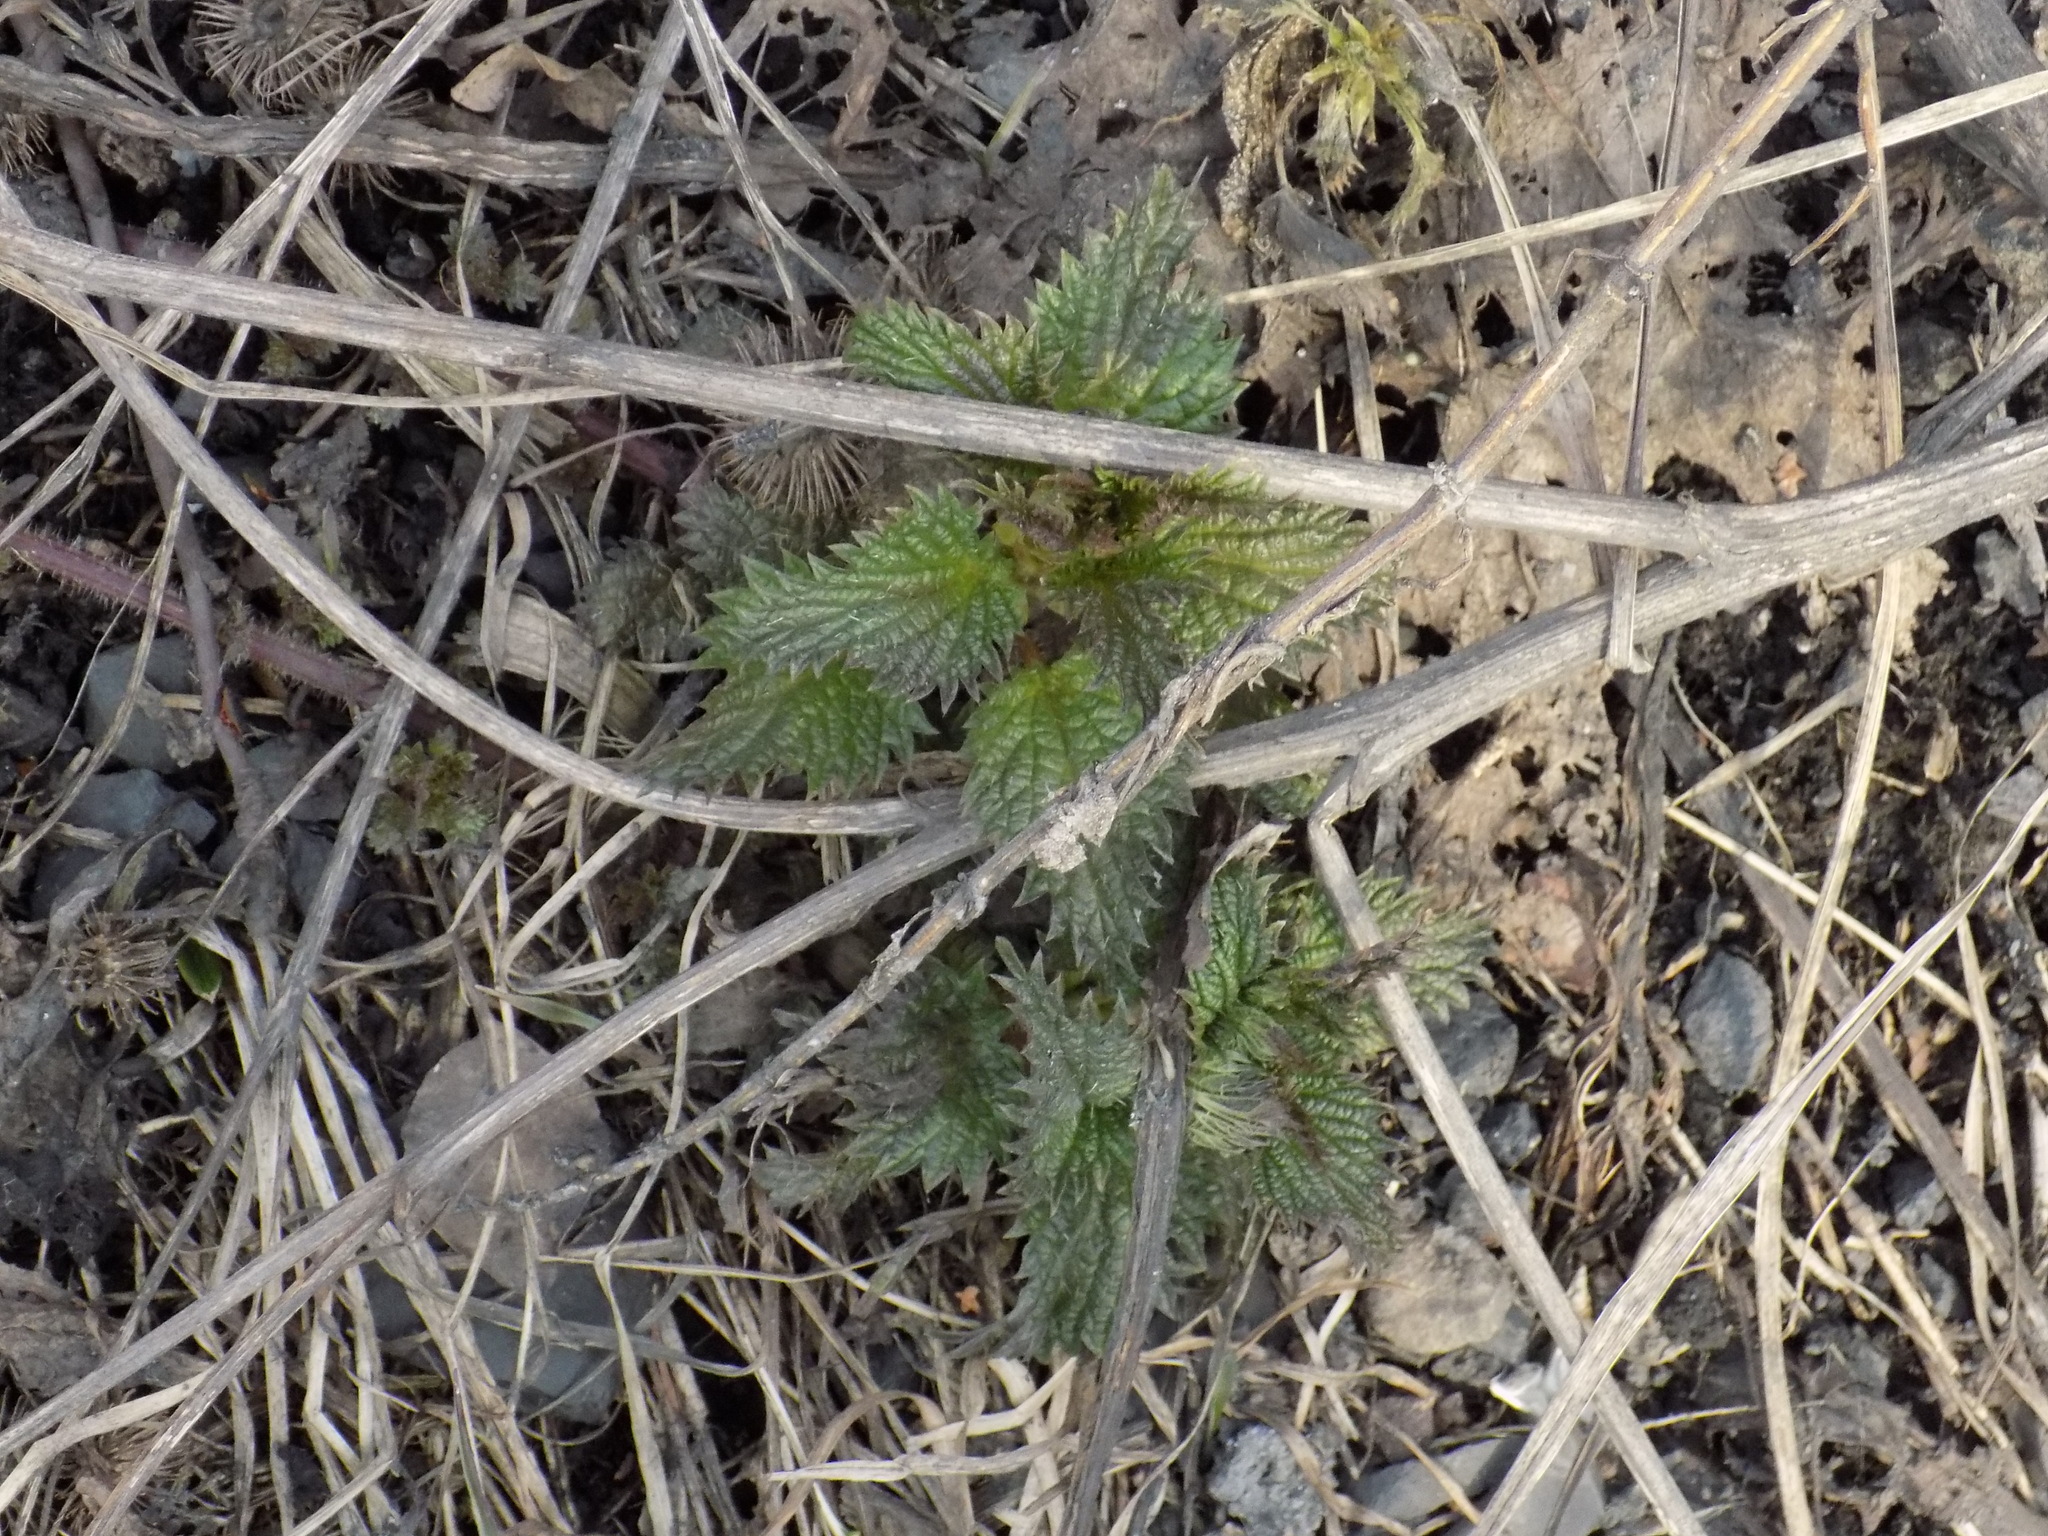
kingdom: Plantae
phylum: Tracheophyta
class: Magnoliopsida
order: Rosales
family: Urticaceae
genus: Urtica
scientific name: Urtica dioica
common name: Common nettle
